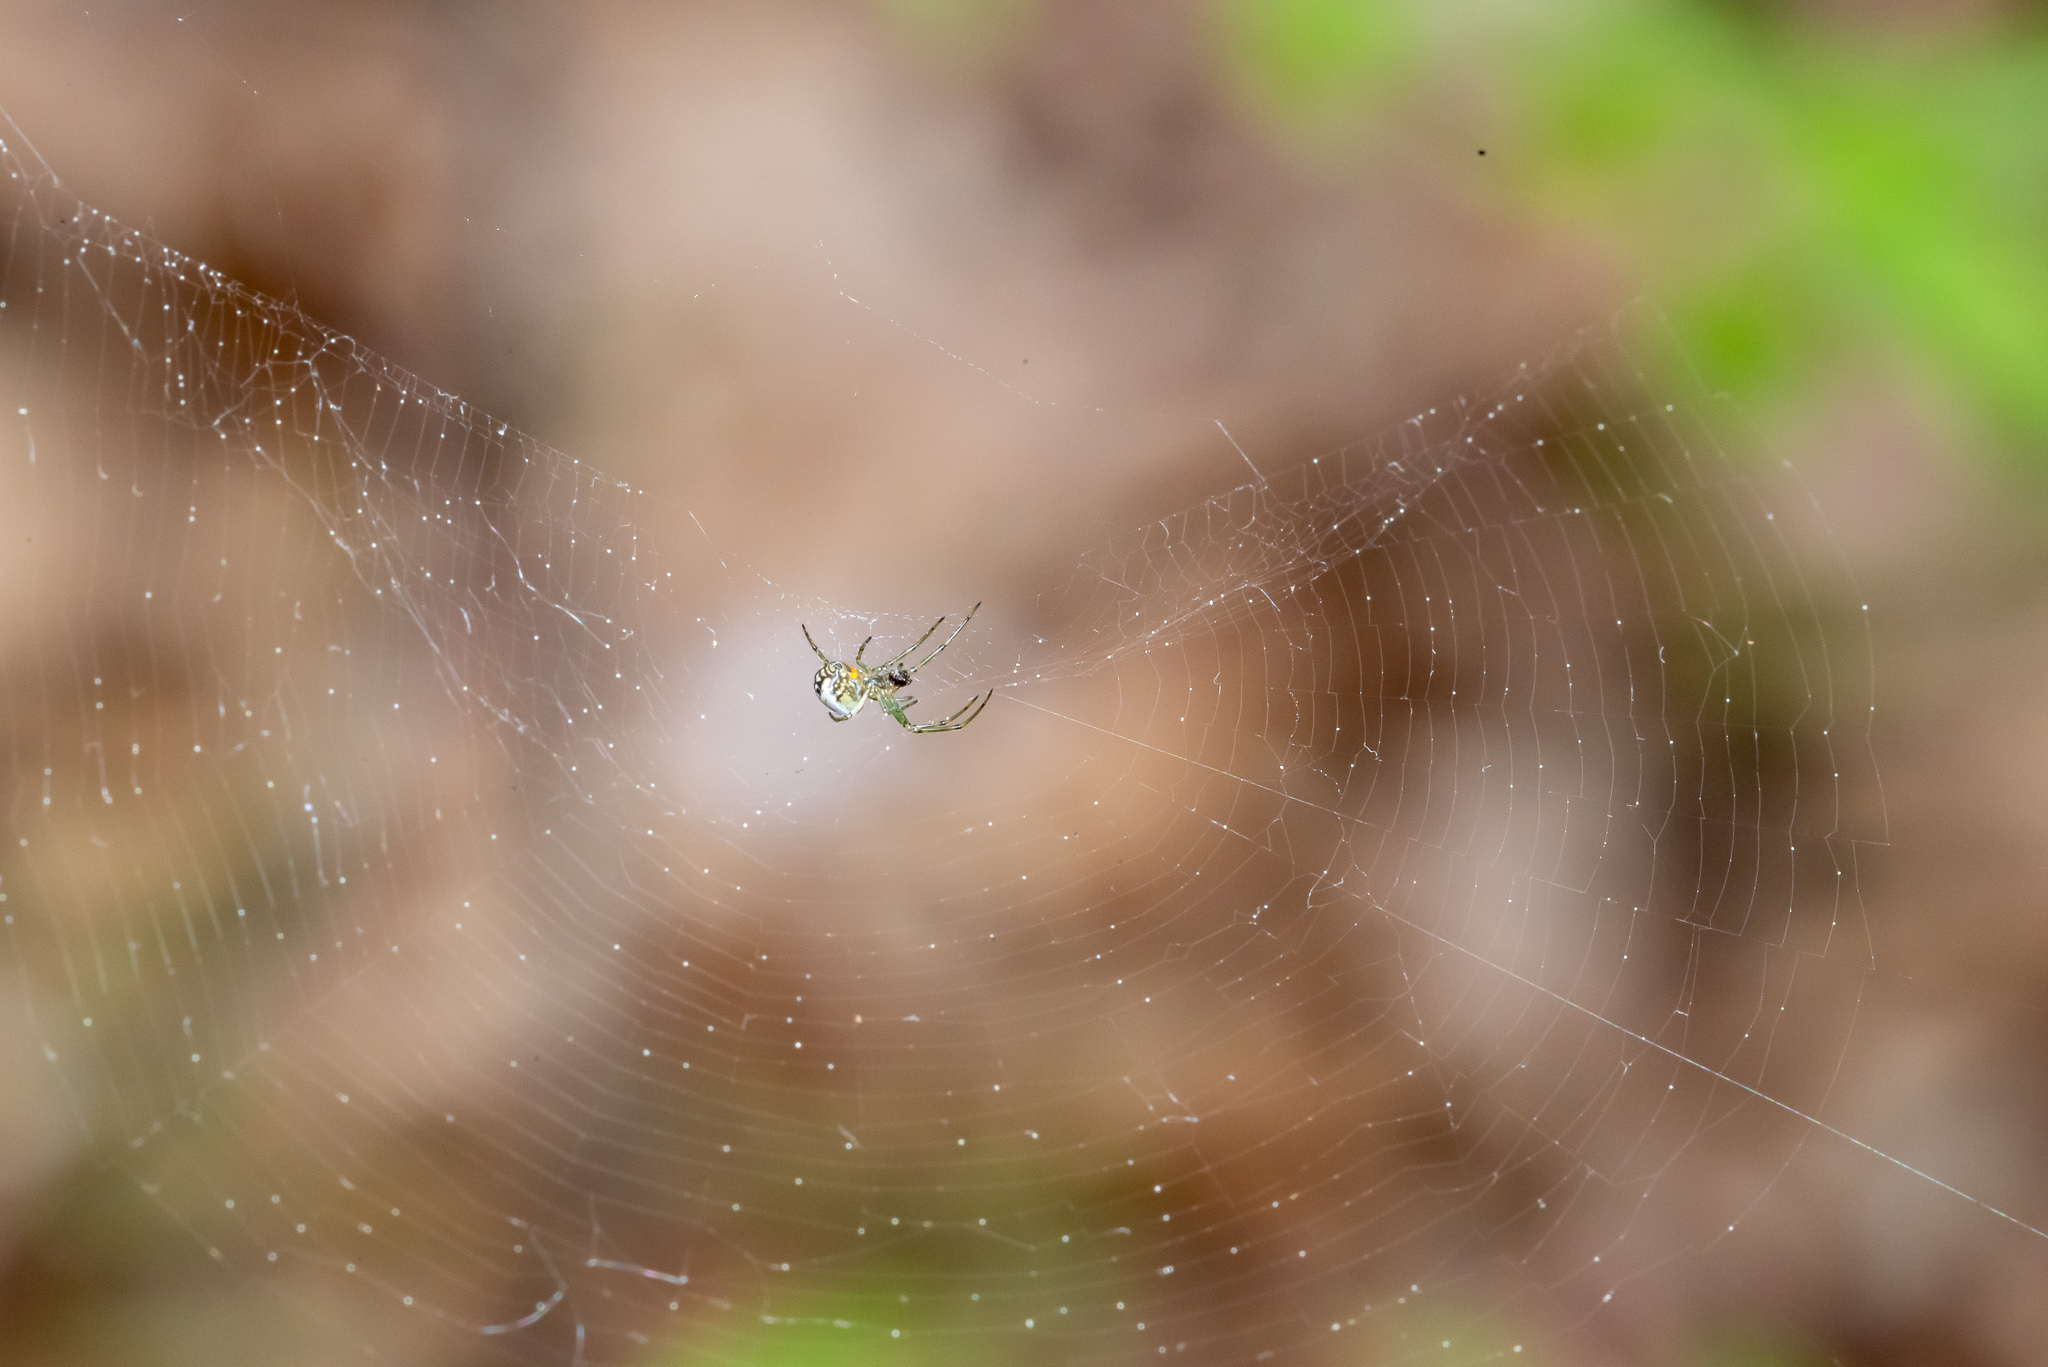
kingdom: Animalia
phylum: Arthropoda
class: Arachnida
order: Araneae
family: Tetragnathidae
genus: Leucauge
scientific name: Leucauge venusta
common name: Longjawed orb weavers
